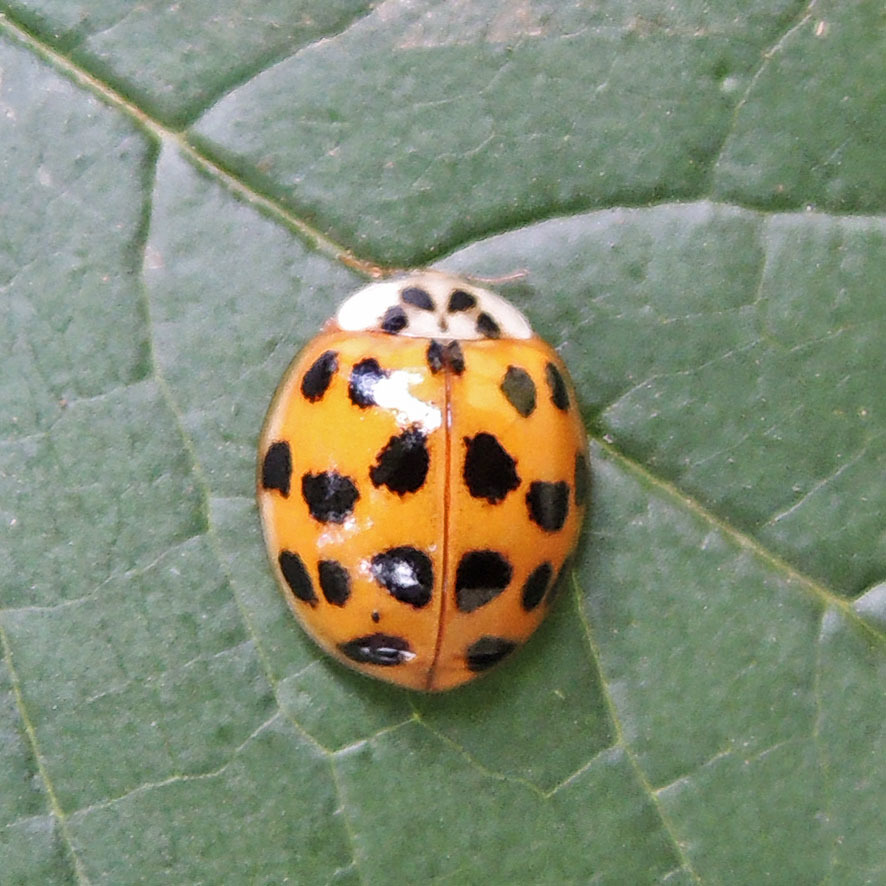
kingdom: Animalia
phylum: Arthropoda
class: Insecta
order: Coleoptera
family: Coccinellidae
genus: Harmonia
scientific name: Harmonia axyridis
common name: Harlequin ladybird
